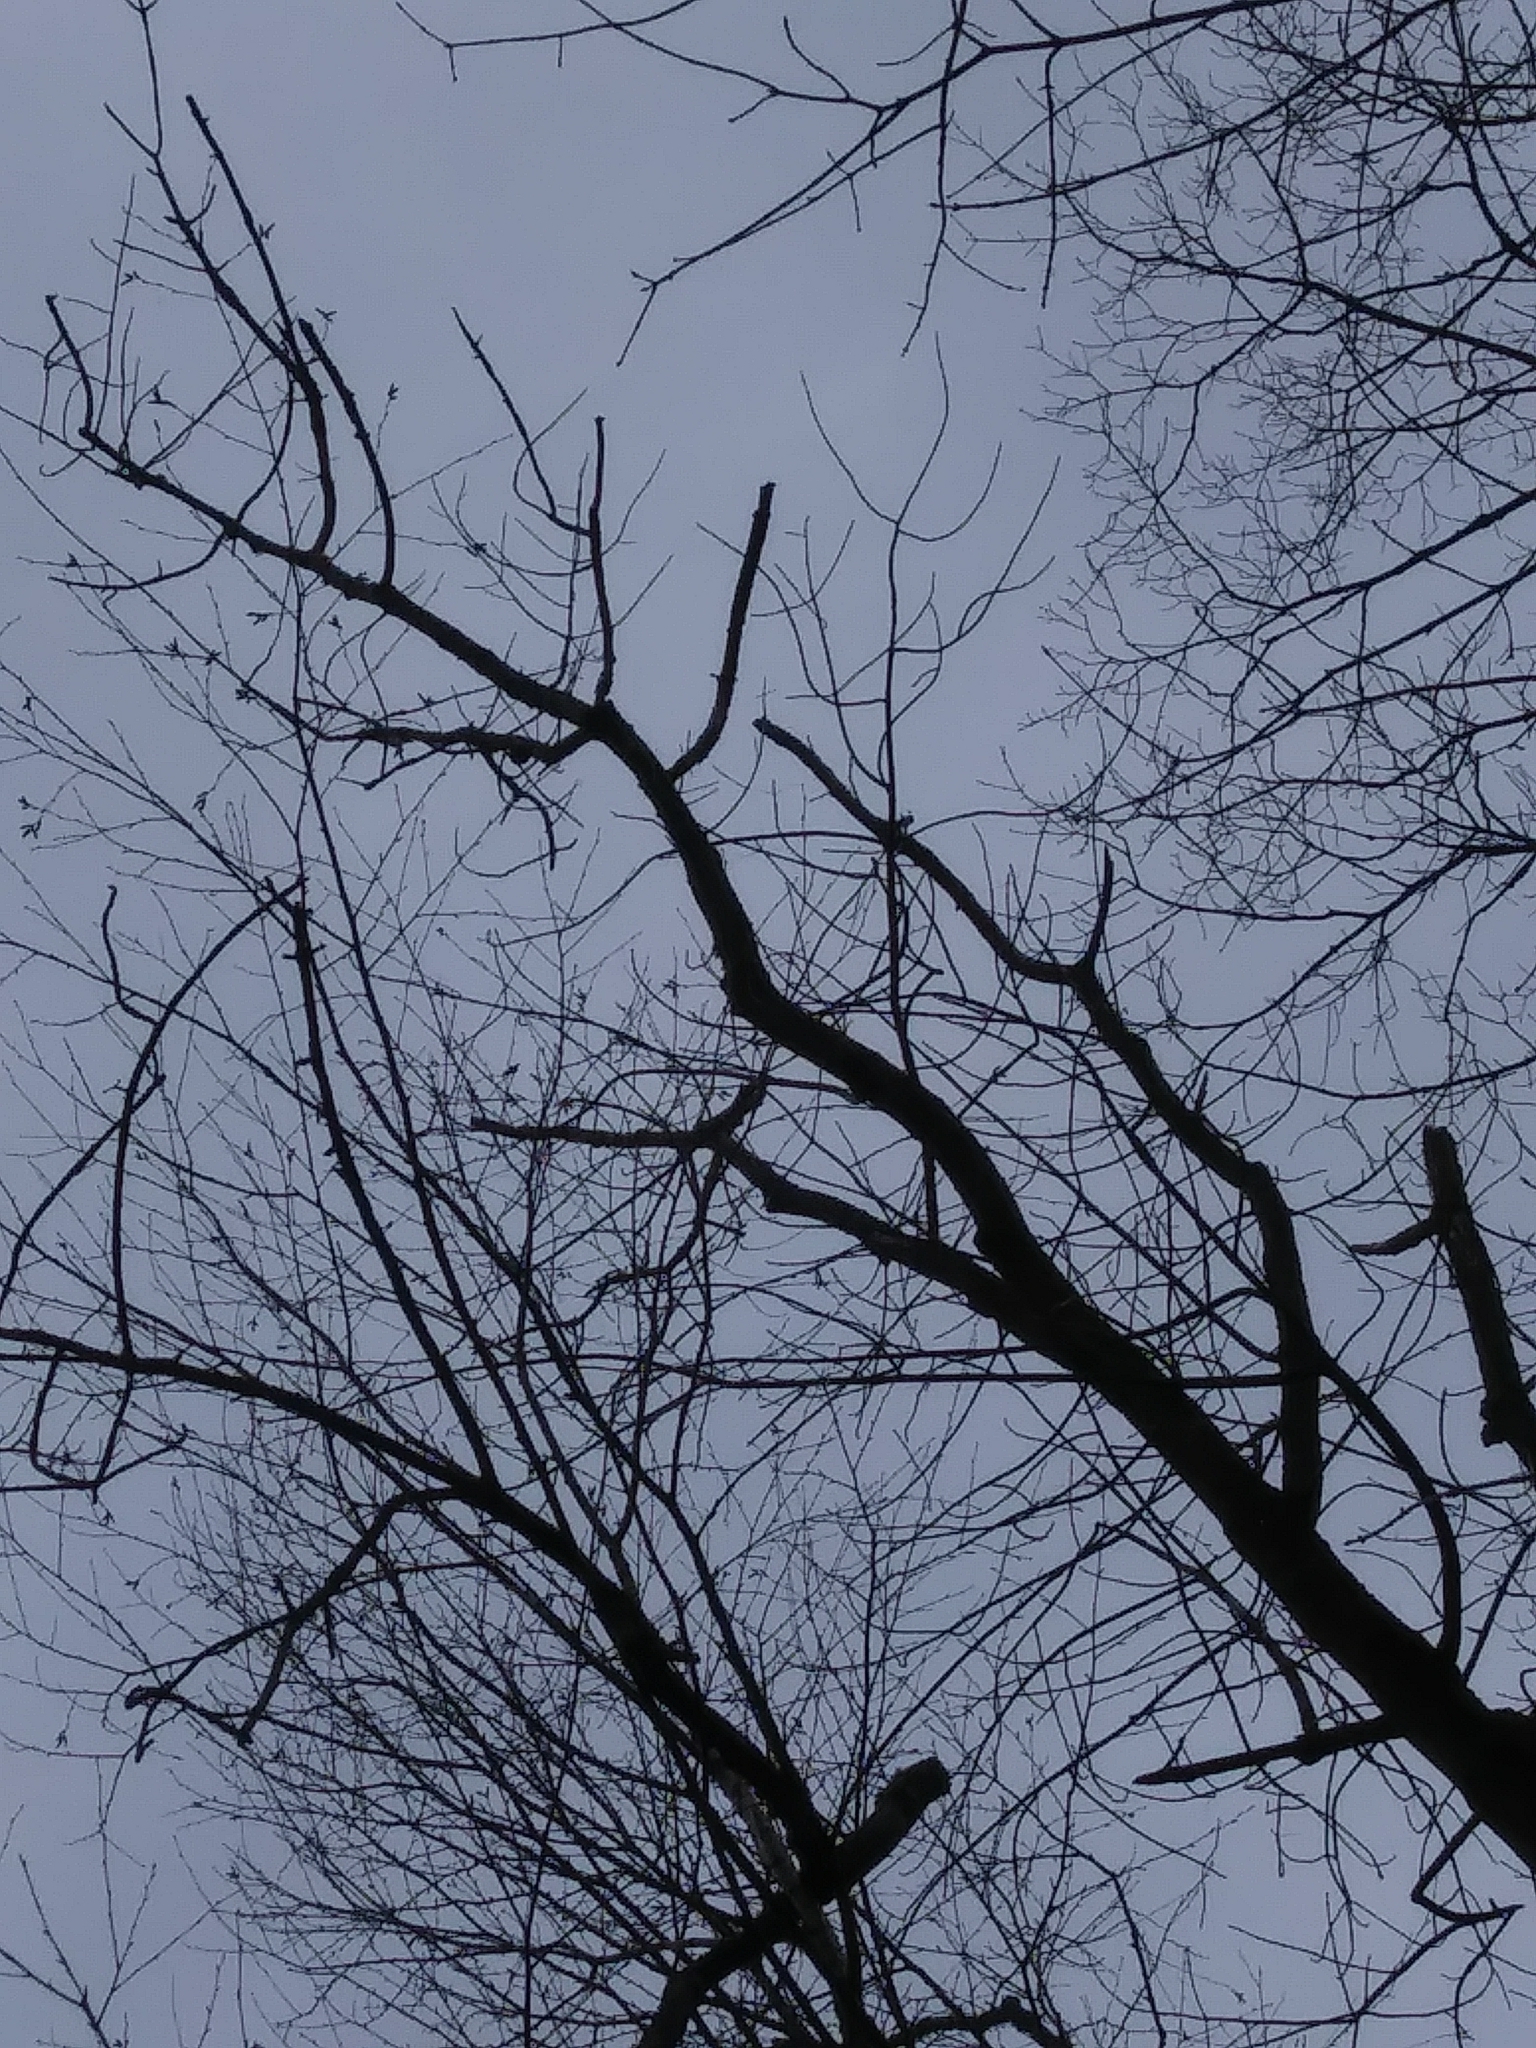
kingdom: Plantae
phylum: Tracheophyta
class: Magnoliopsida
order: Lamiales
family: Oleaceae
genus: Fraxinus
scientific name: Fraxinus americana
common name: White ash
